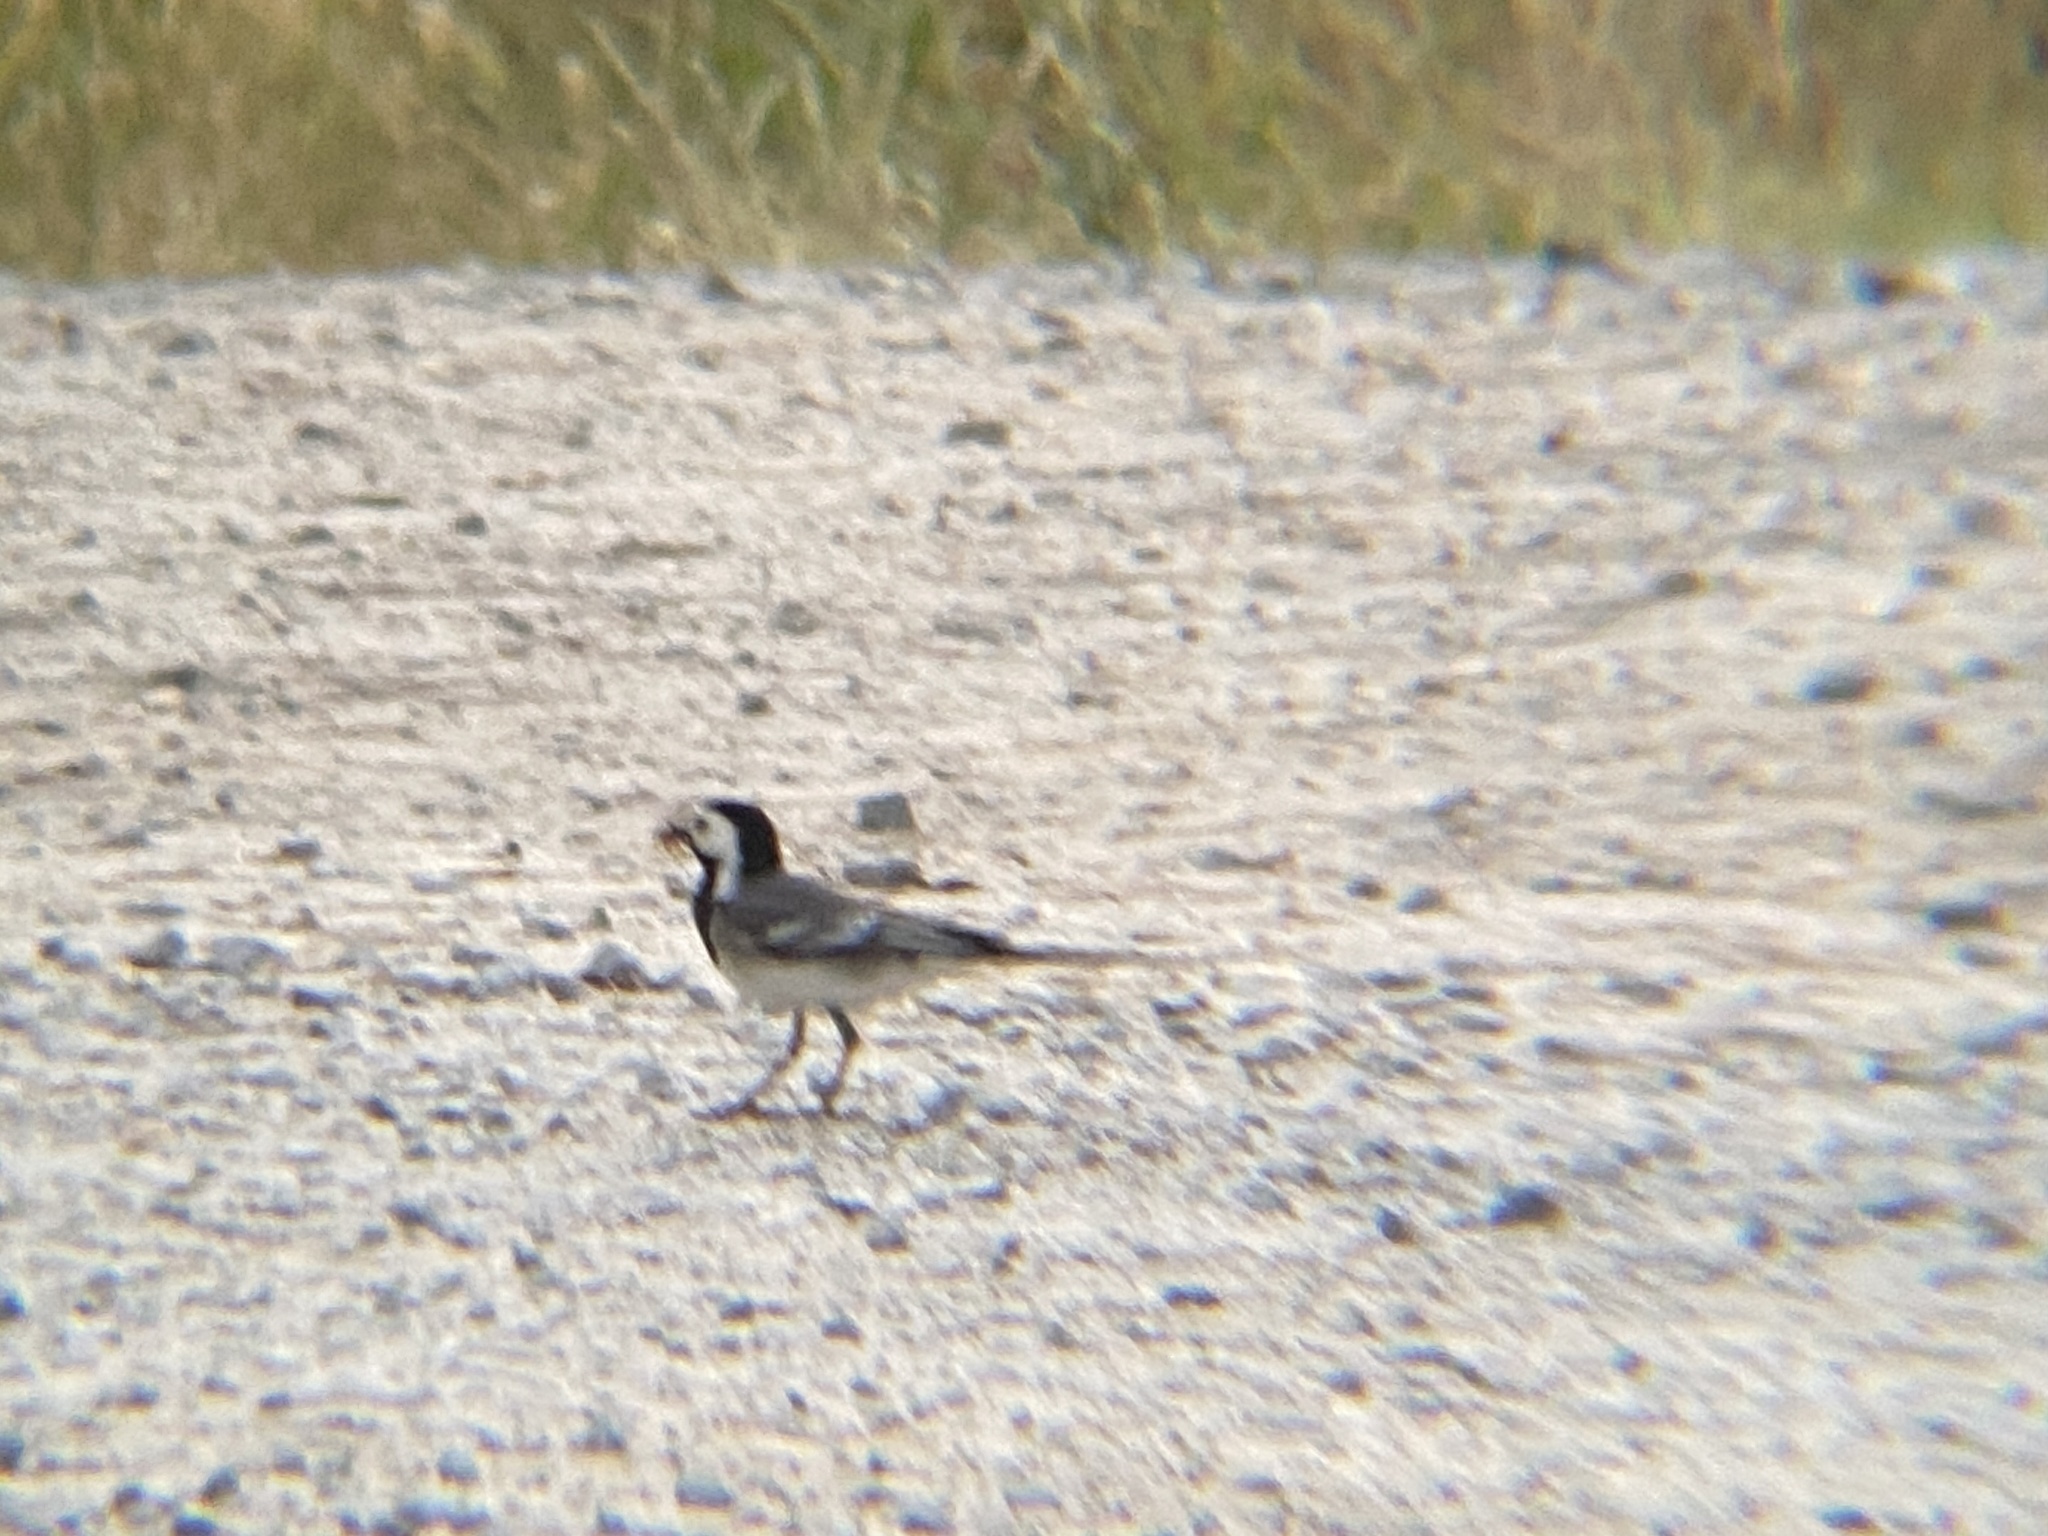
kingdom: Animalia
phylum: Chordata
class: Aves
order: Passeriformes
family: Motacillidae
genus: Motacilla
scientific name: Motacilla alba
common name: White wagtail
